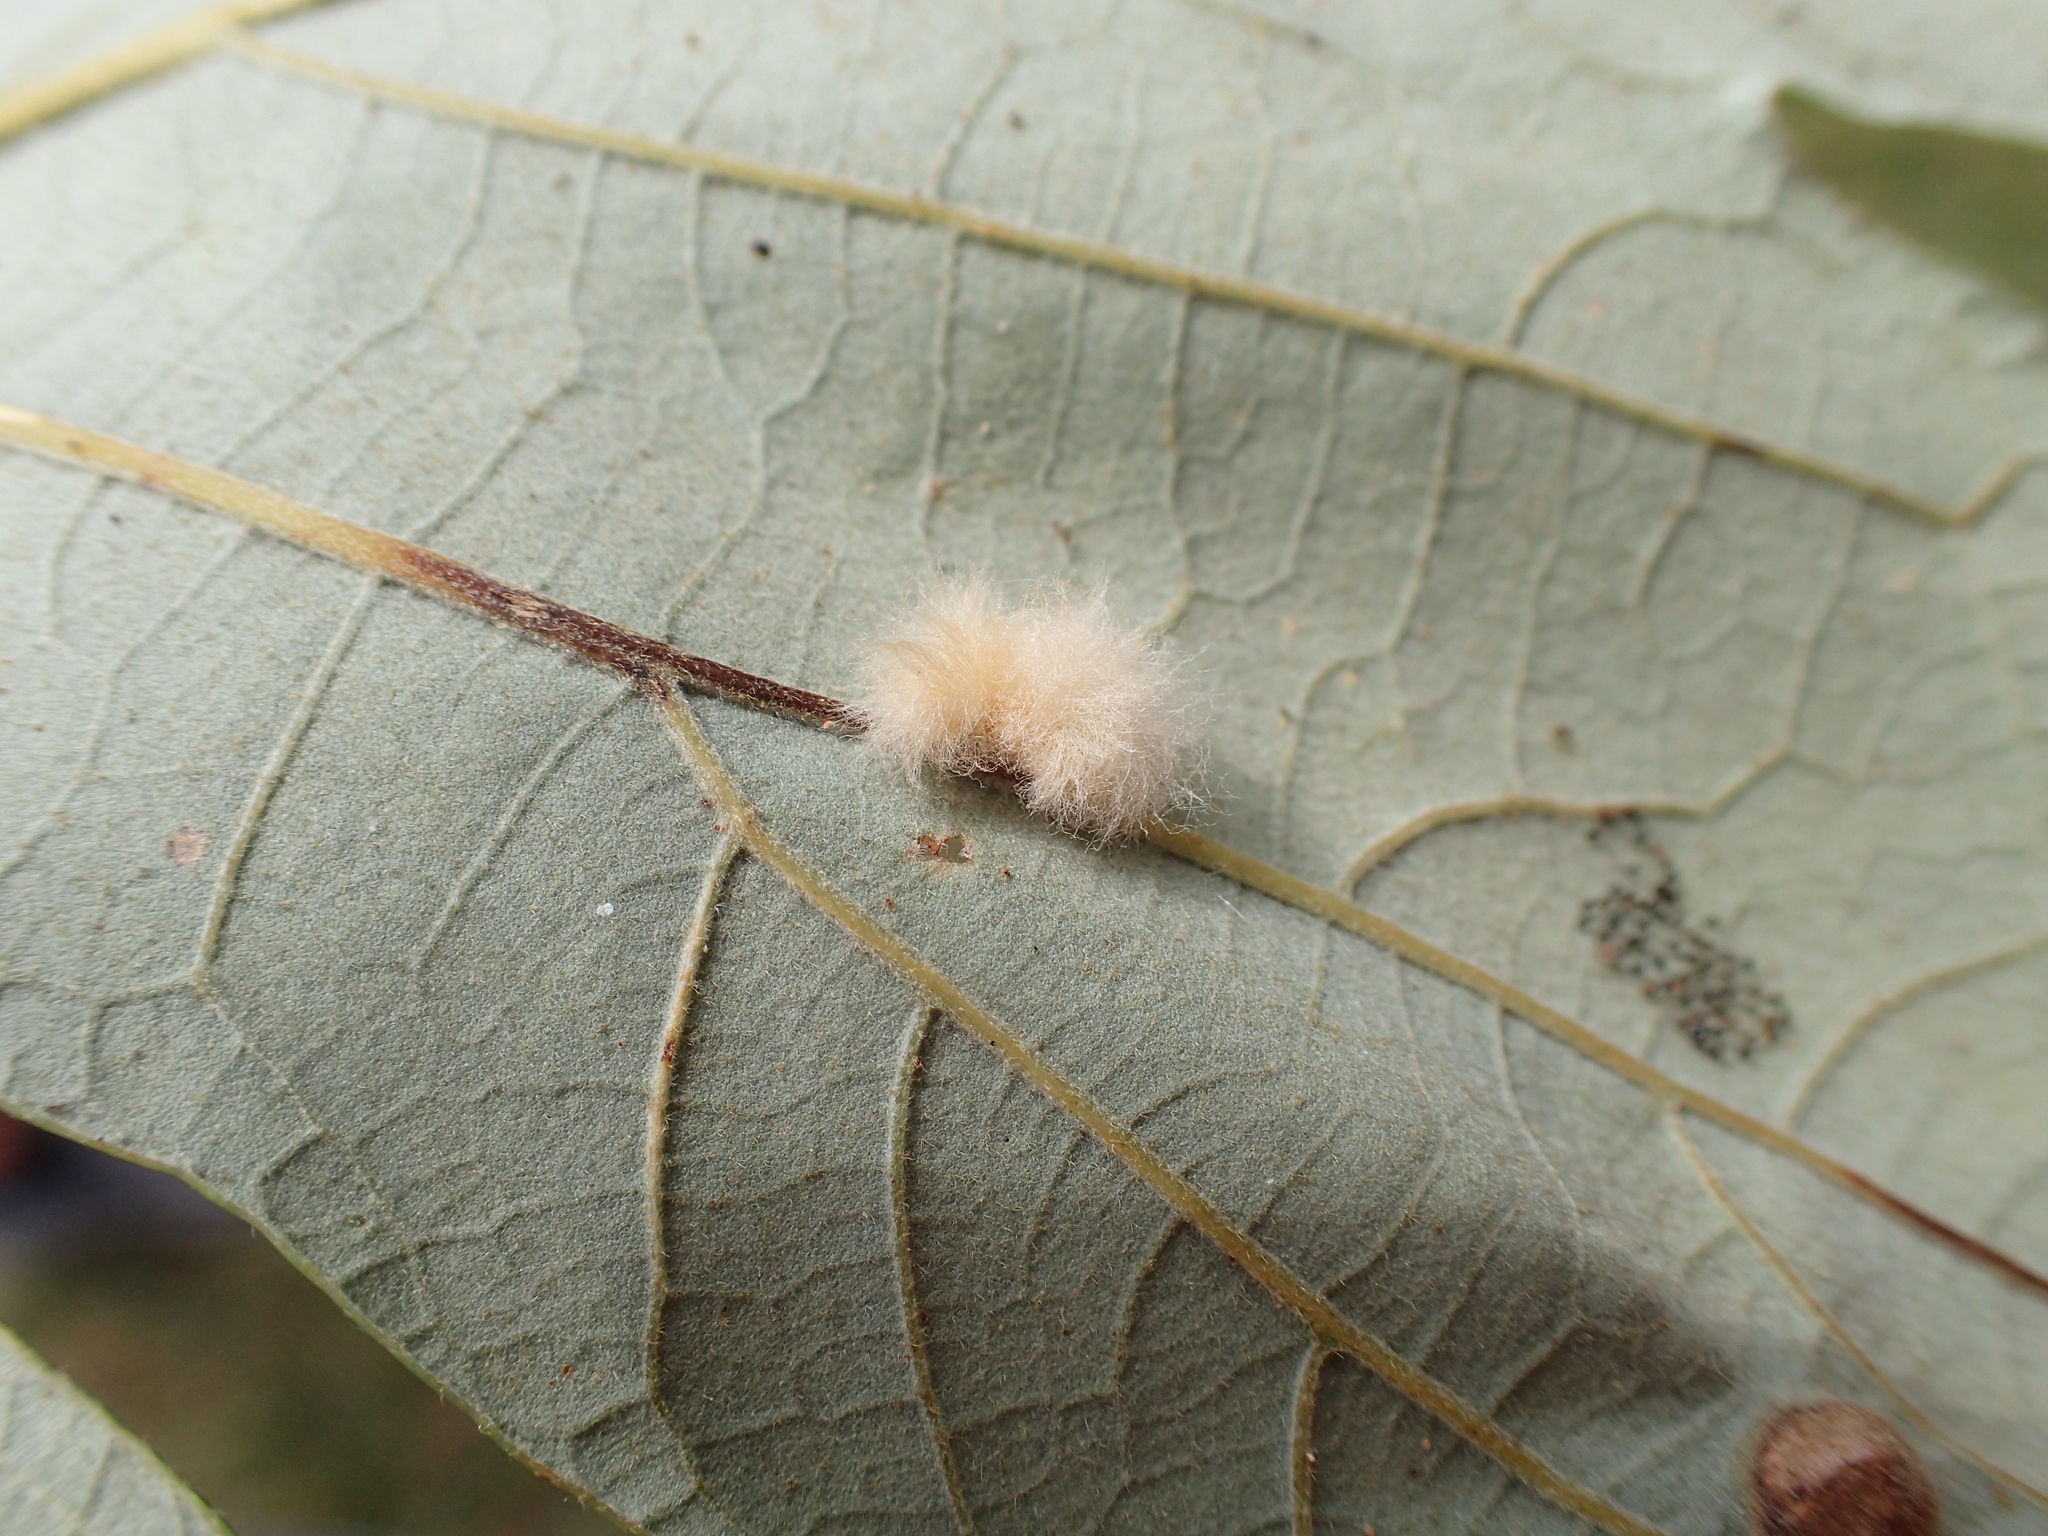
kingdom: Animalia
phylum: Arthropoda
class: Insecta
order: Hymenoptera
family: Cynipidae
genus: Andricus
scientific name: Andricus Druon ignotum
